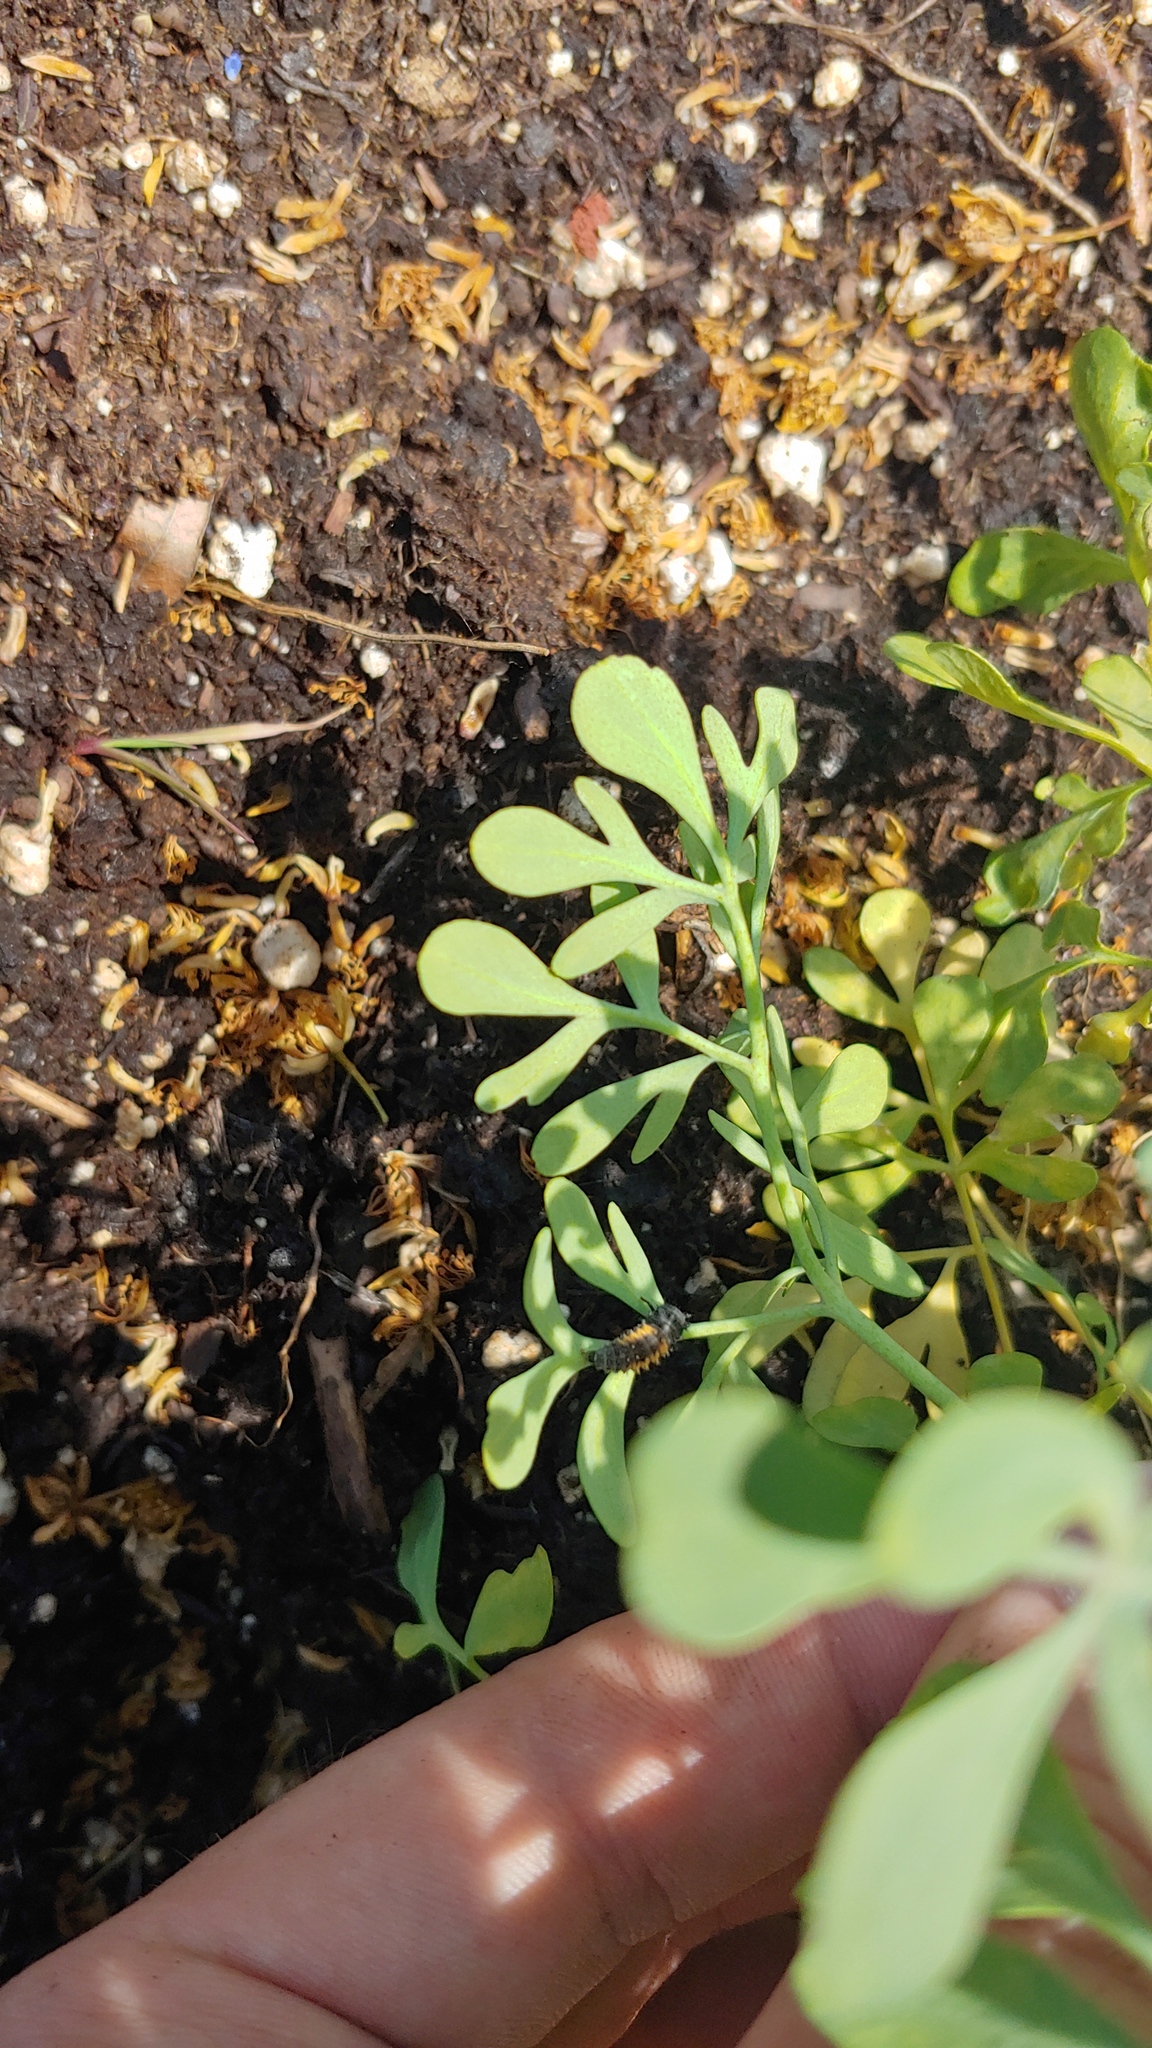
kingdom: Animalia
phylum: Arthropoda
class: Insecta
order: Coleoptera
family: Coccinellidae
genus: Harmonia
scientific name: Harmonia axyridis
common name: Harlequin ladybird
